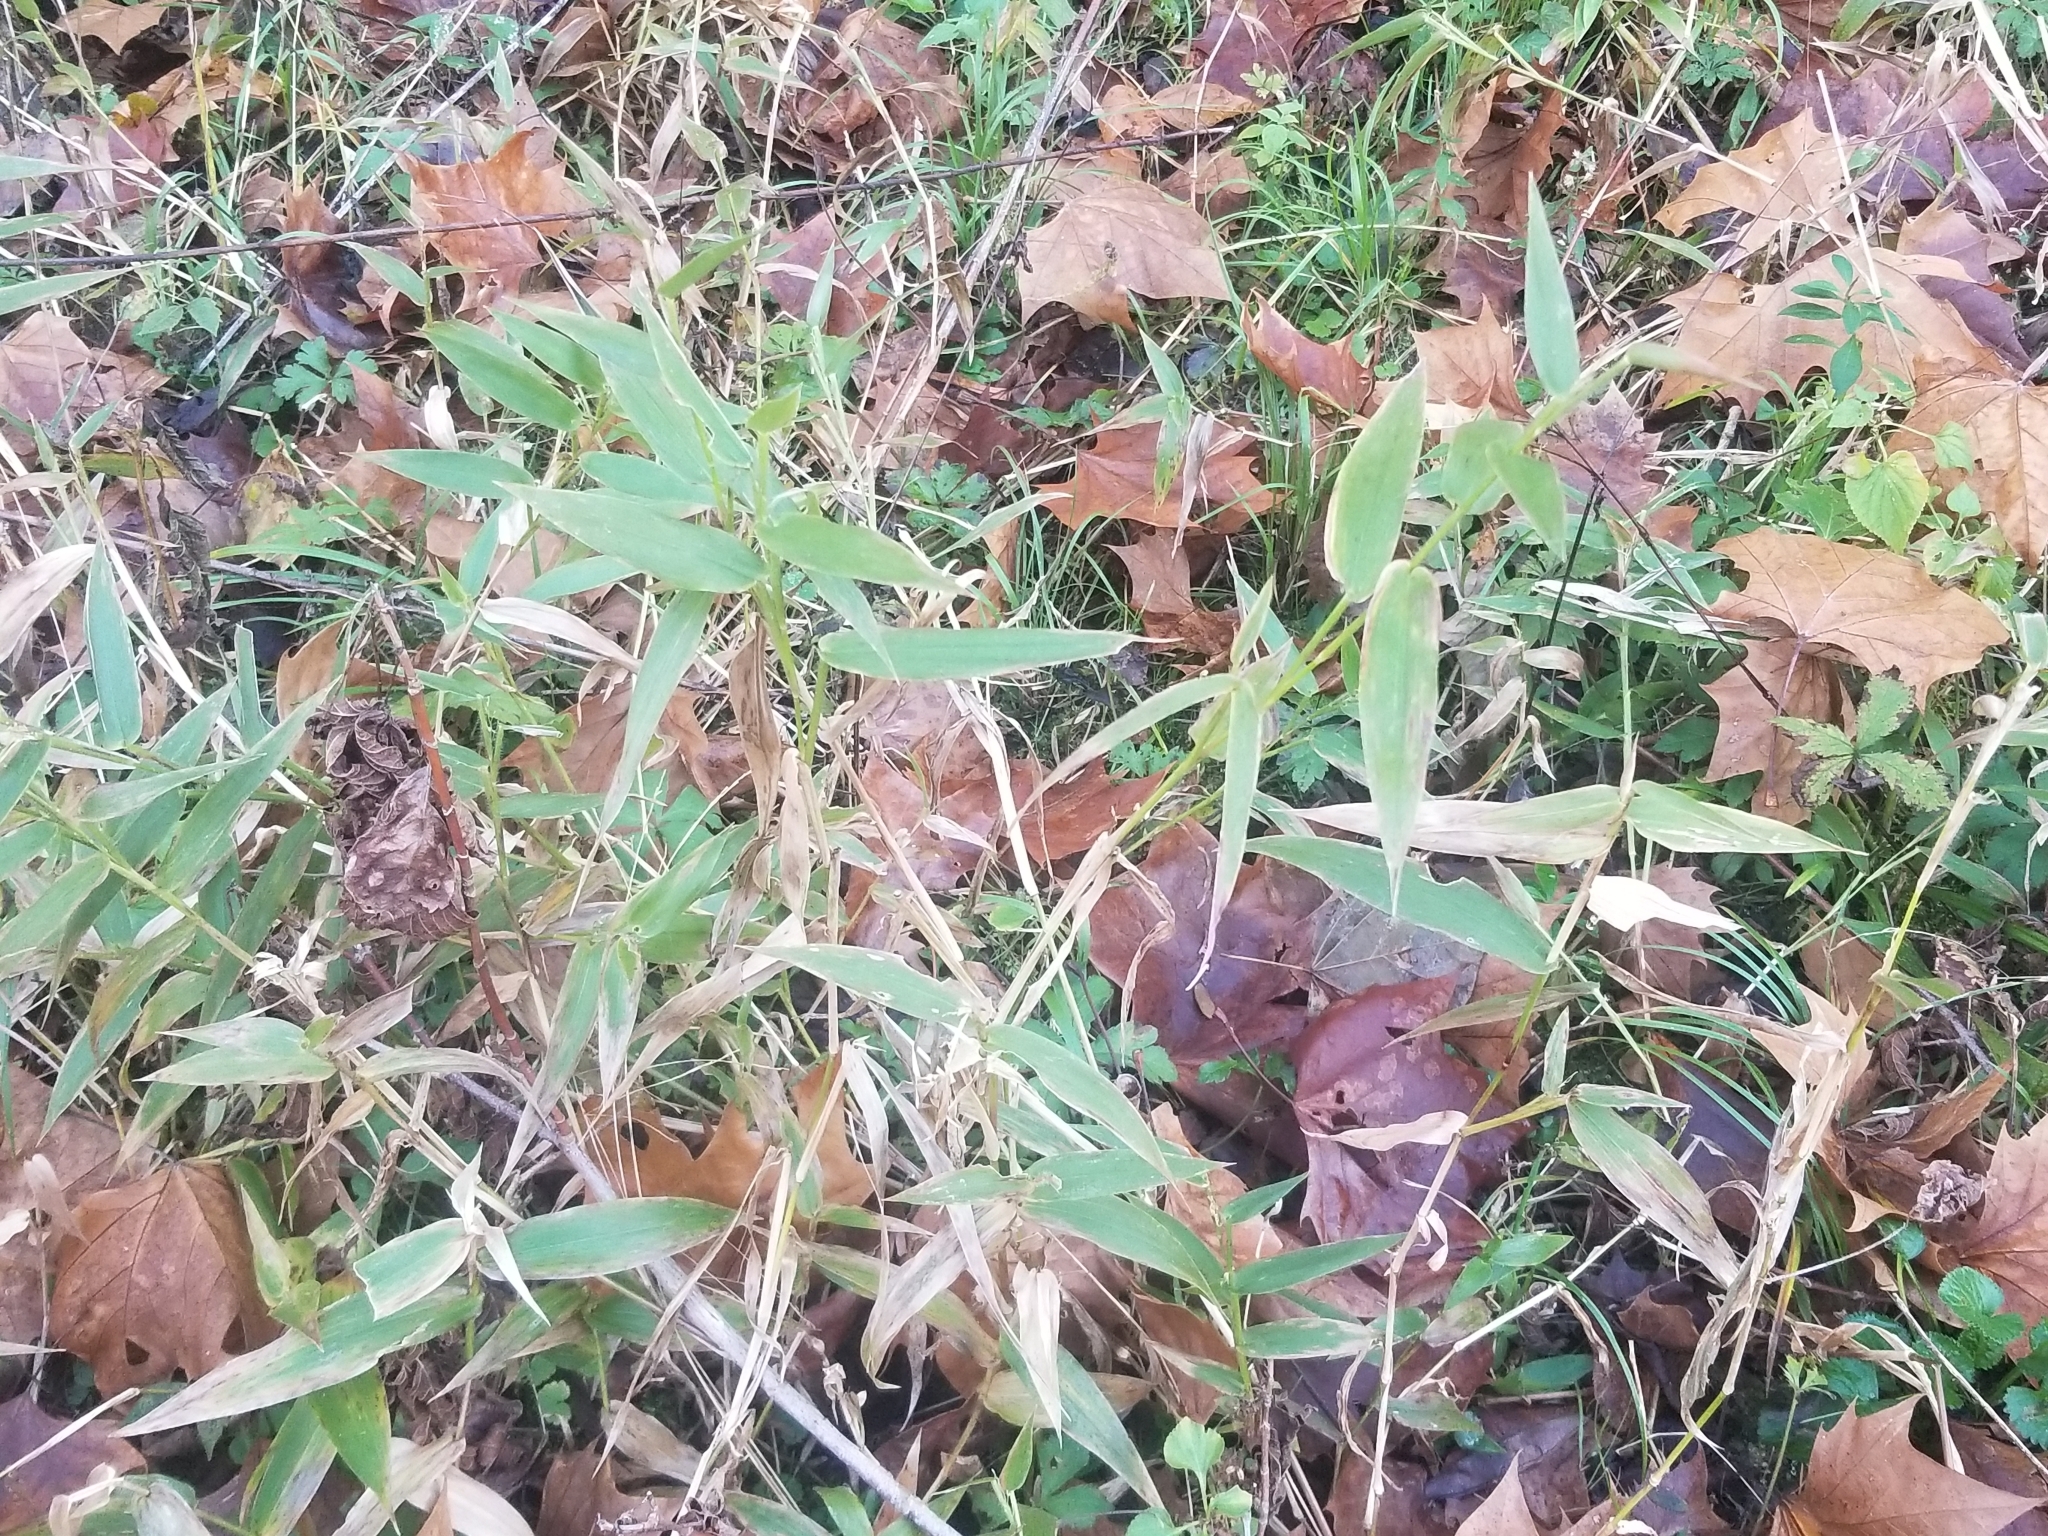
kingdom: Plantae
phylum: Tracheophyta
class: Liliopsida
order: Poales
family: Poaceae
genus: Phalaris
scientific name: Phalaris arundinacea
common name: Reed canary-grass
